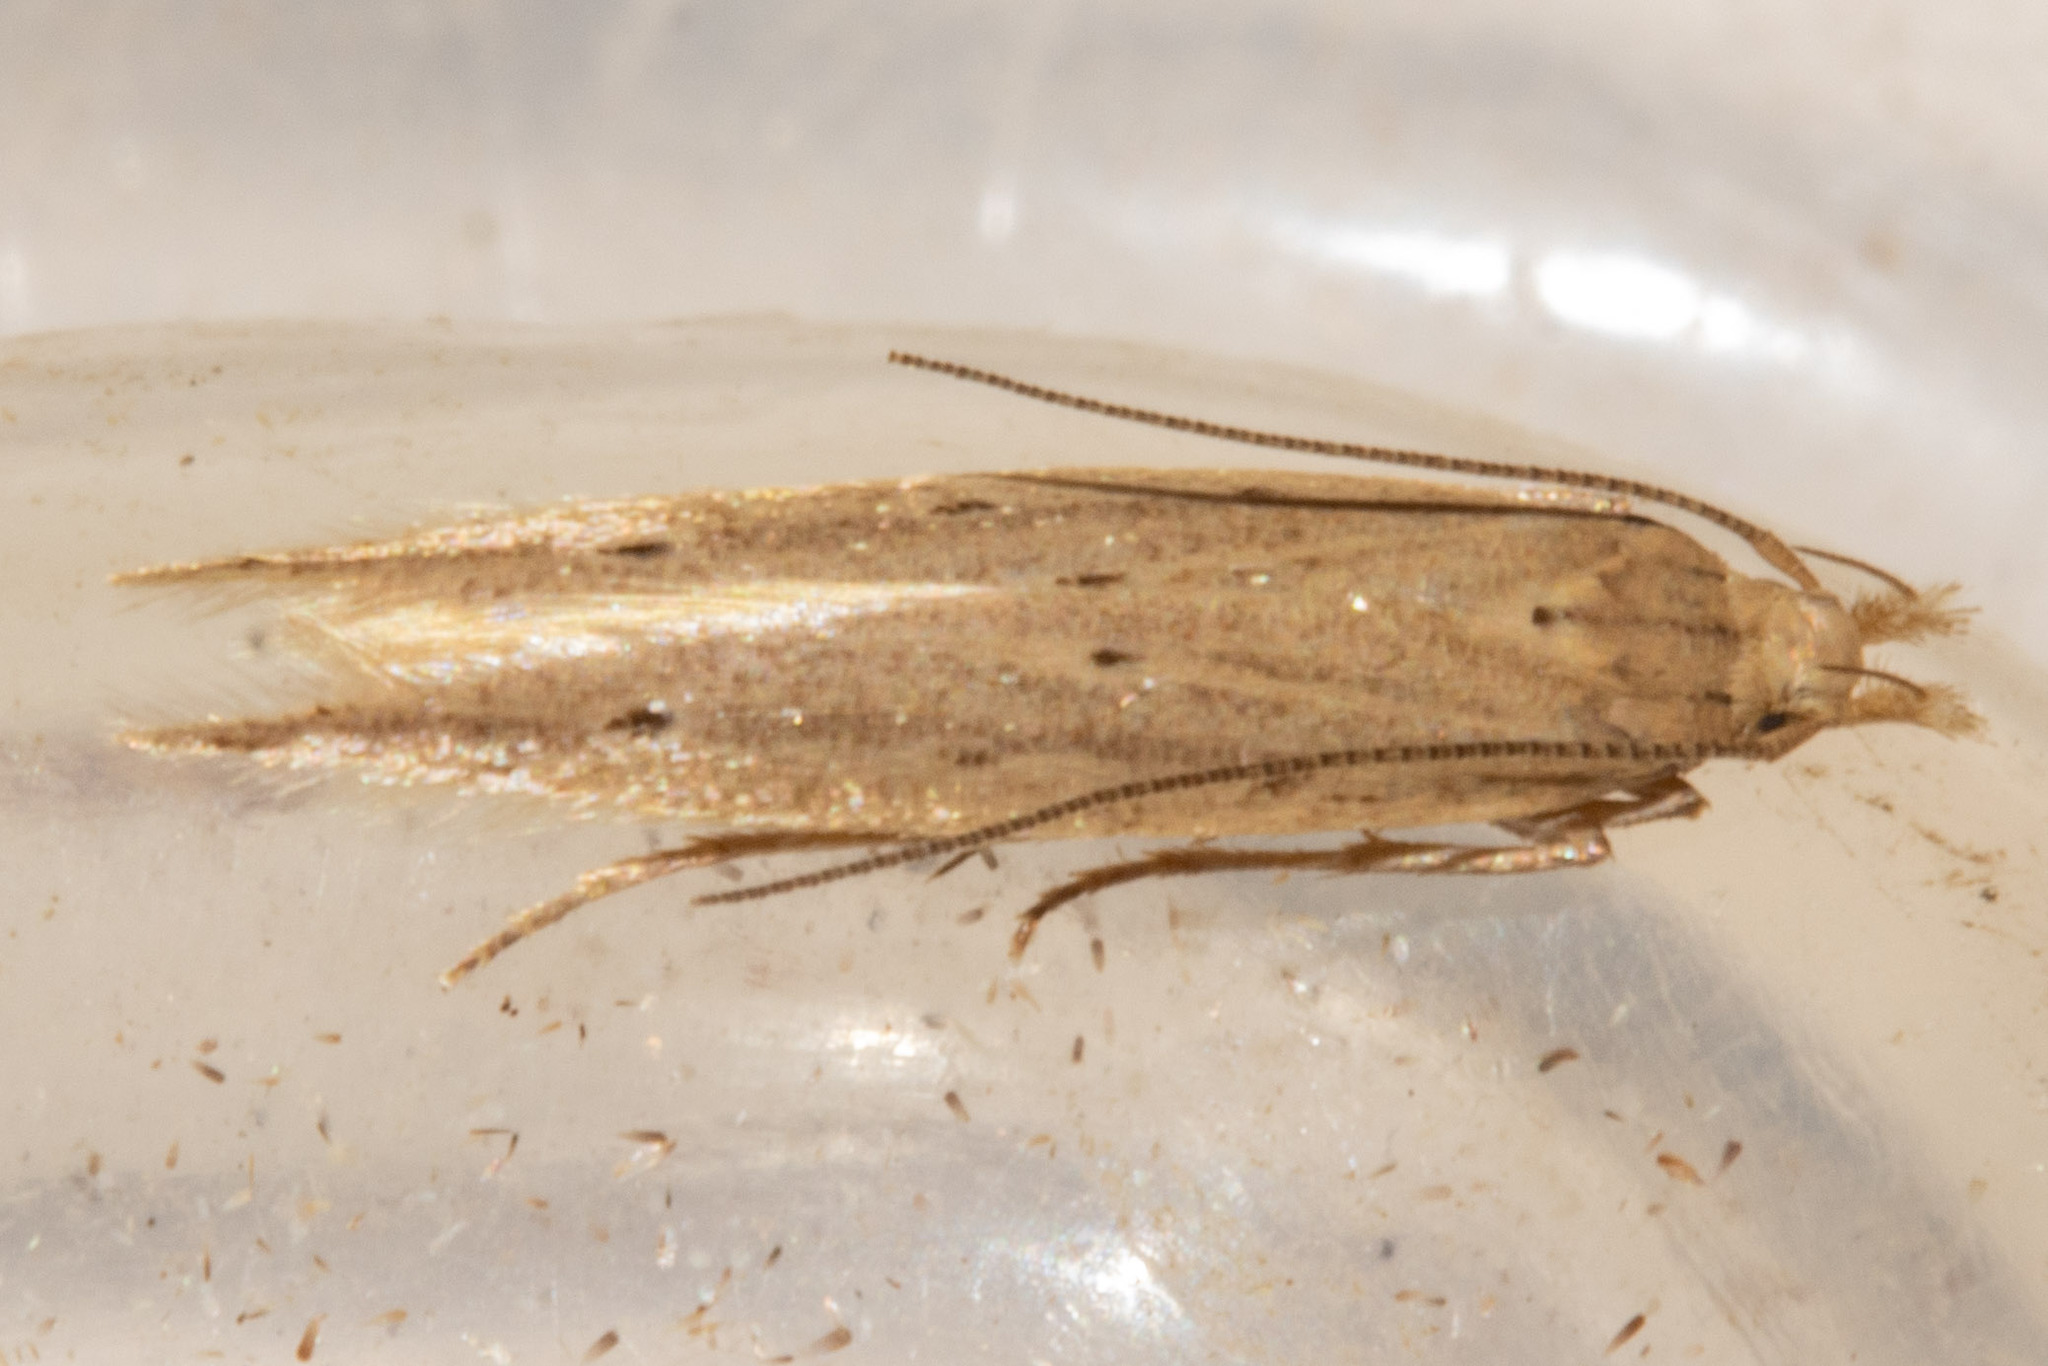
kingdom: Animalia
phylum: Arthropoda
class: Insecta
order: Lepidoptera
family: Gelechiidae
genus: Epiphthora
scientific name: Epiphthora calamogonus
